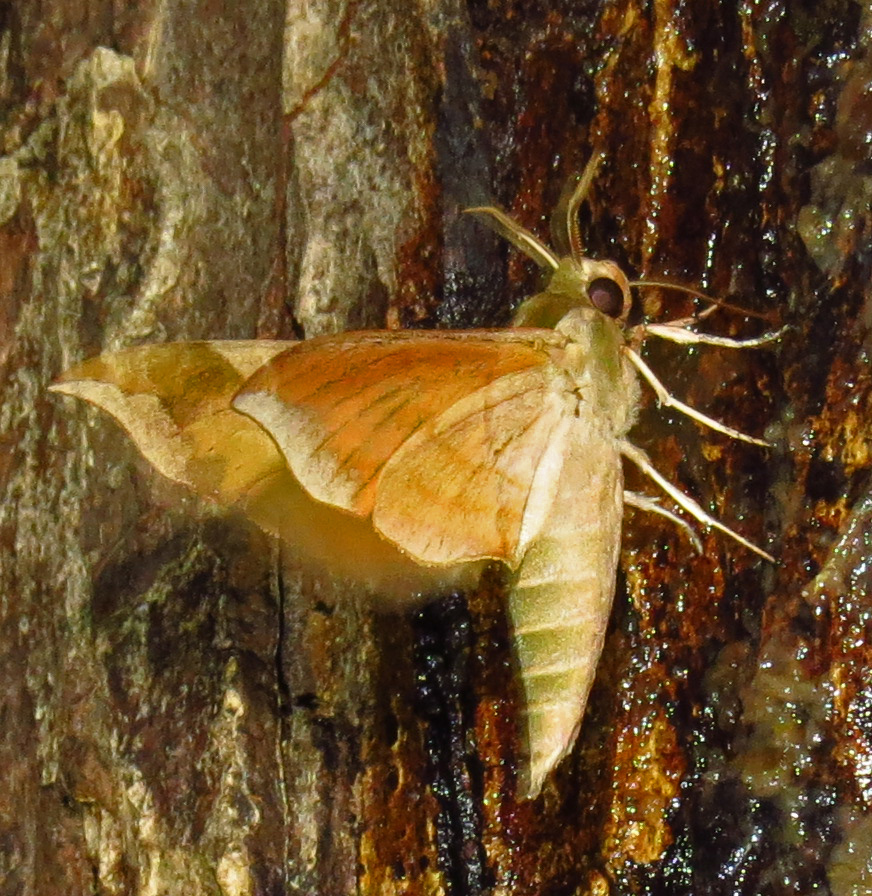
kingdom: Animalia
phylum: Arthropoda
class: Insecta
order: Lepidoptera
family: Sphingidae
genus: Darapsa
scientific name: Darapsa myron
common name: Hog sphinx
